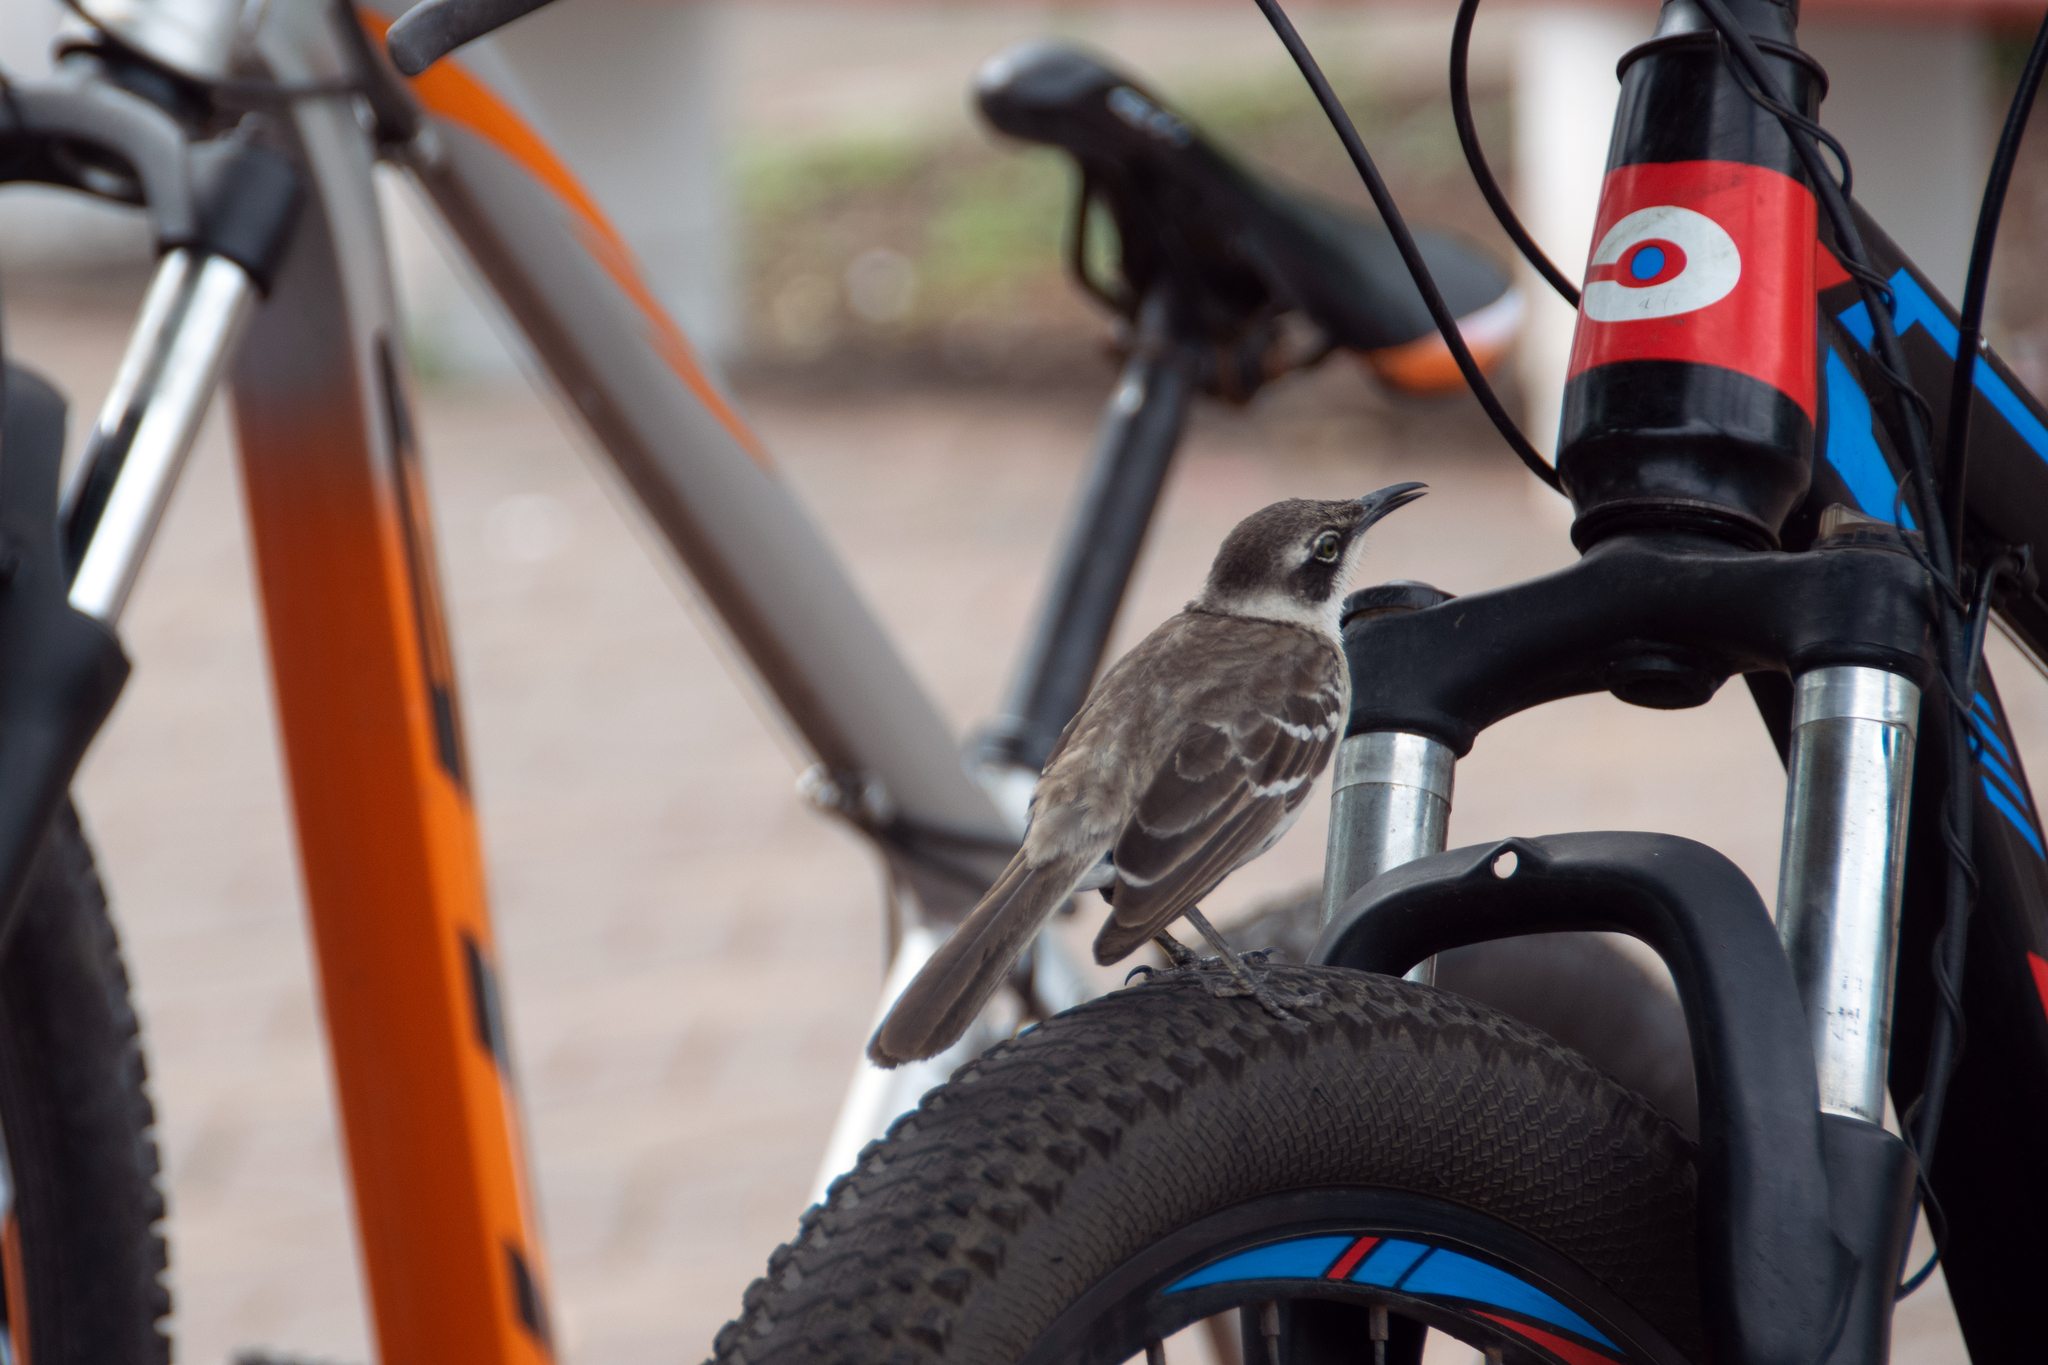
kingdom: Animalia
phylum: Chordata
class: Aves
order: Passeriformes
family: Mimidae
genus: Mimus
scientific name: Mimus parvulus
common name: Galapagos mockingbird
